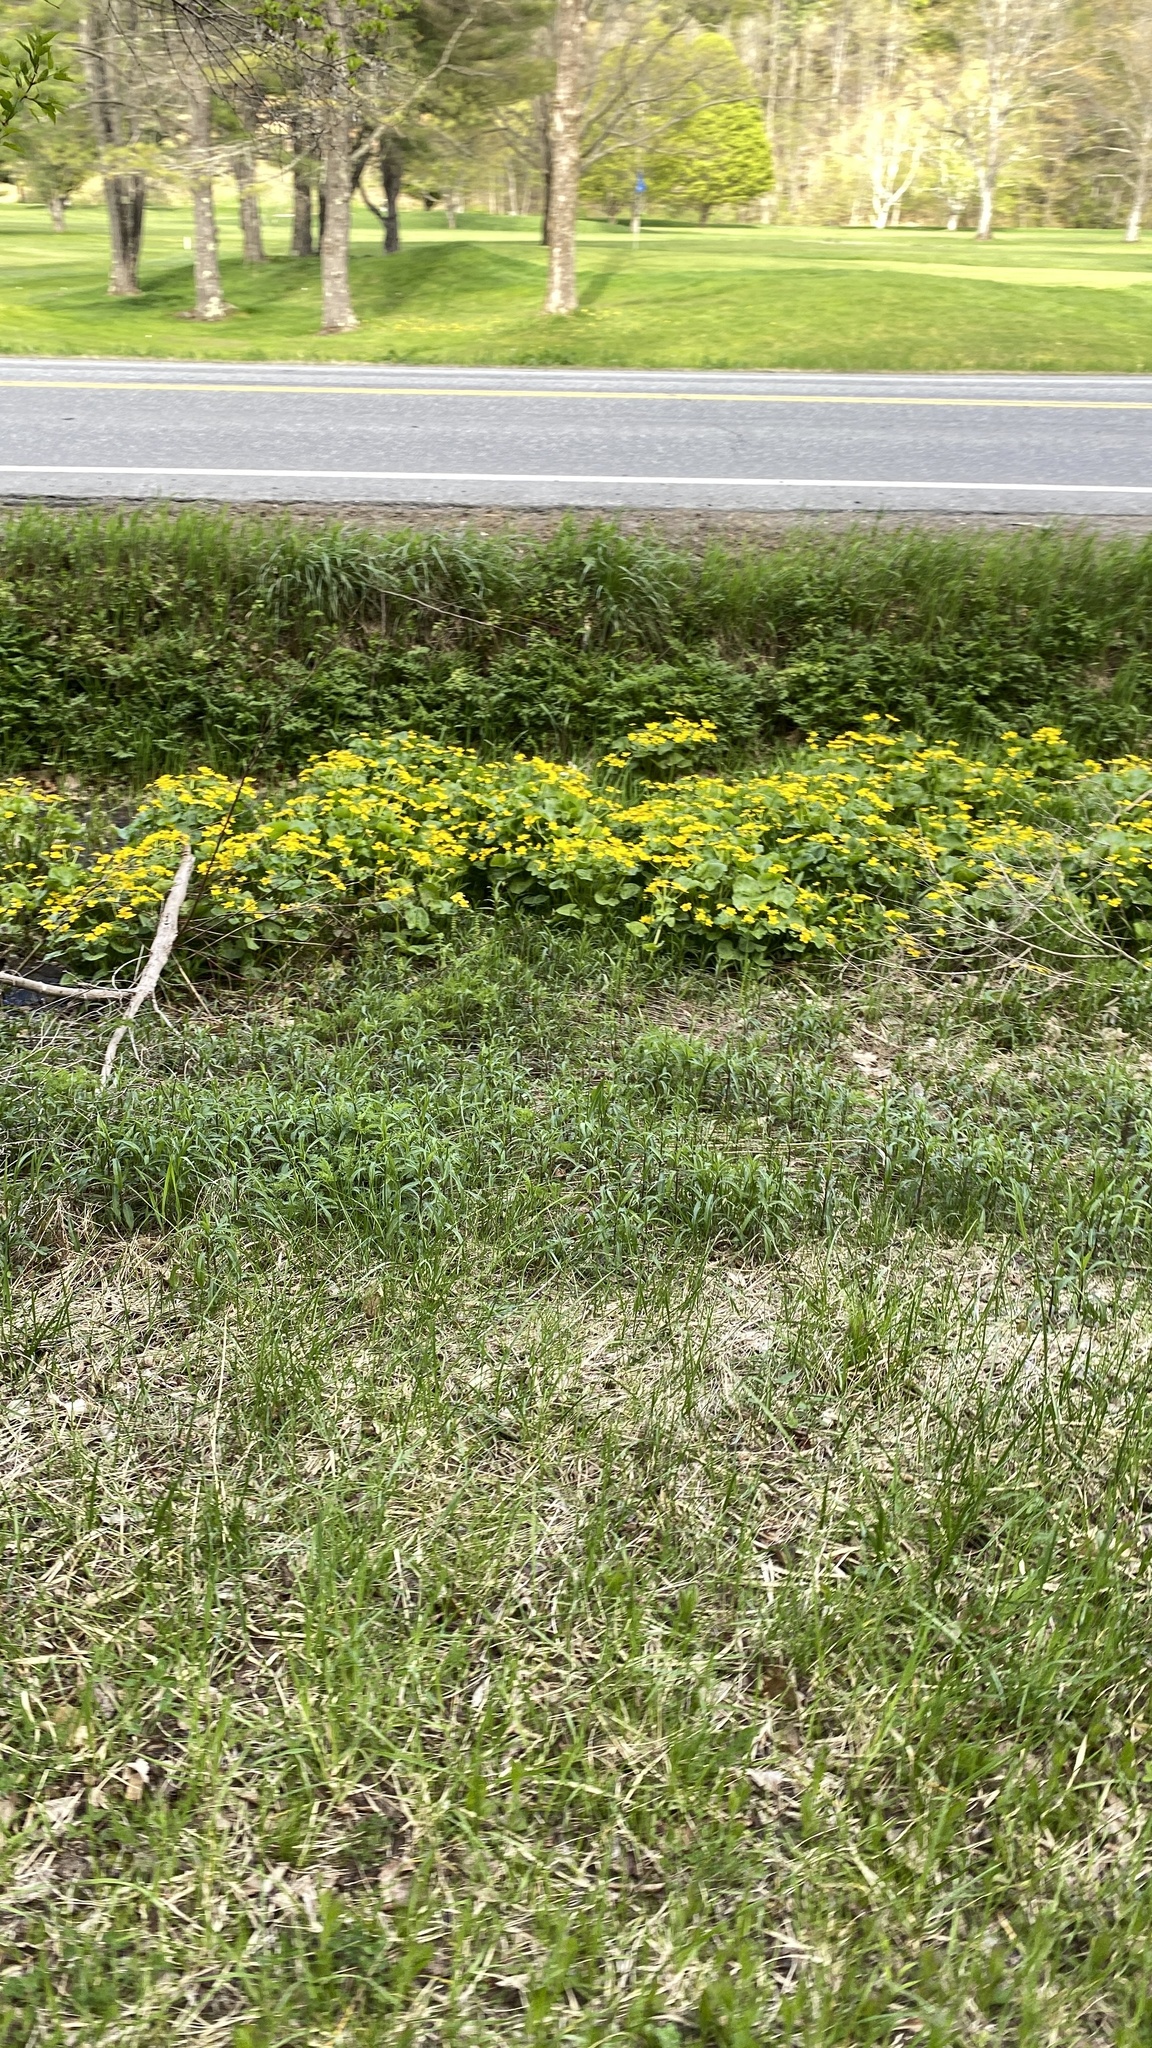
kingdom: Plantae
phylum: Tracheophyta
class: Magnoliopsida
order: Ranunculales
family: Ranunculaceae
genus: Caltha
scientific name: Caltha palustris
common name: Marsh marigold
